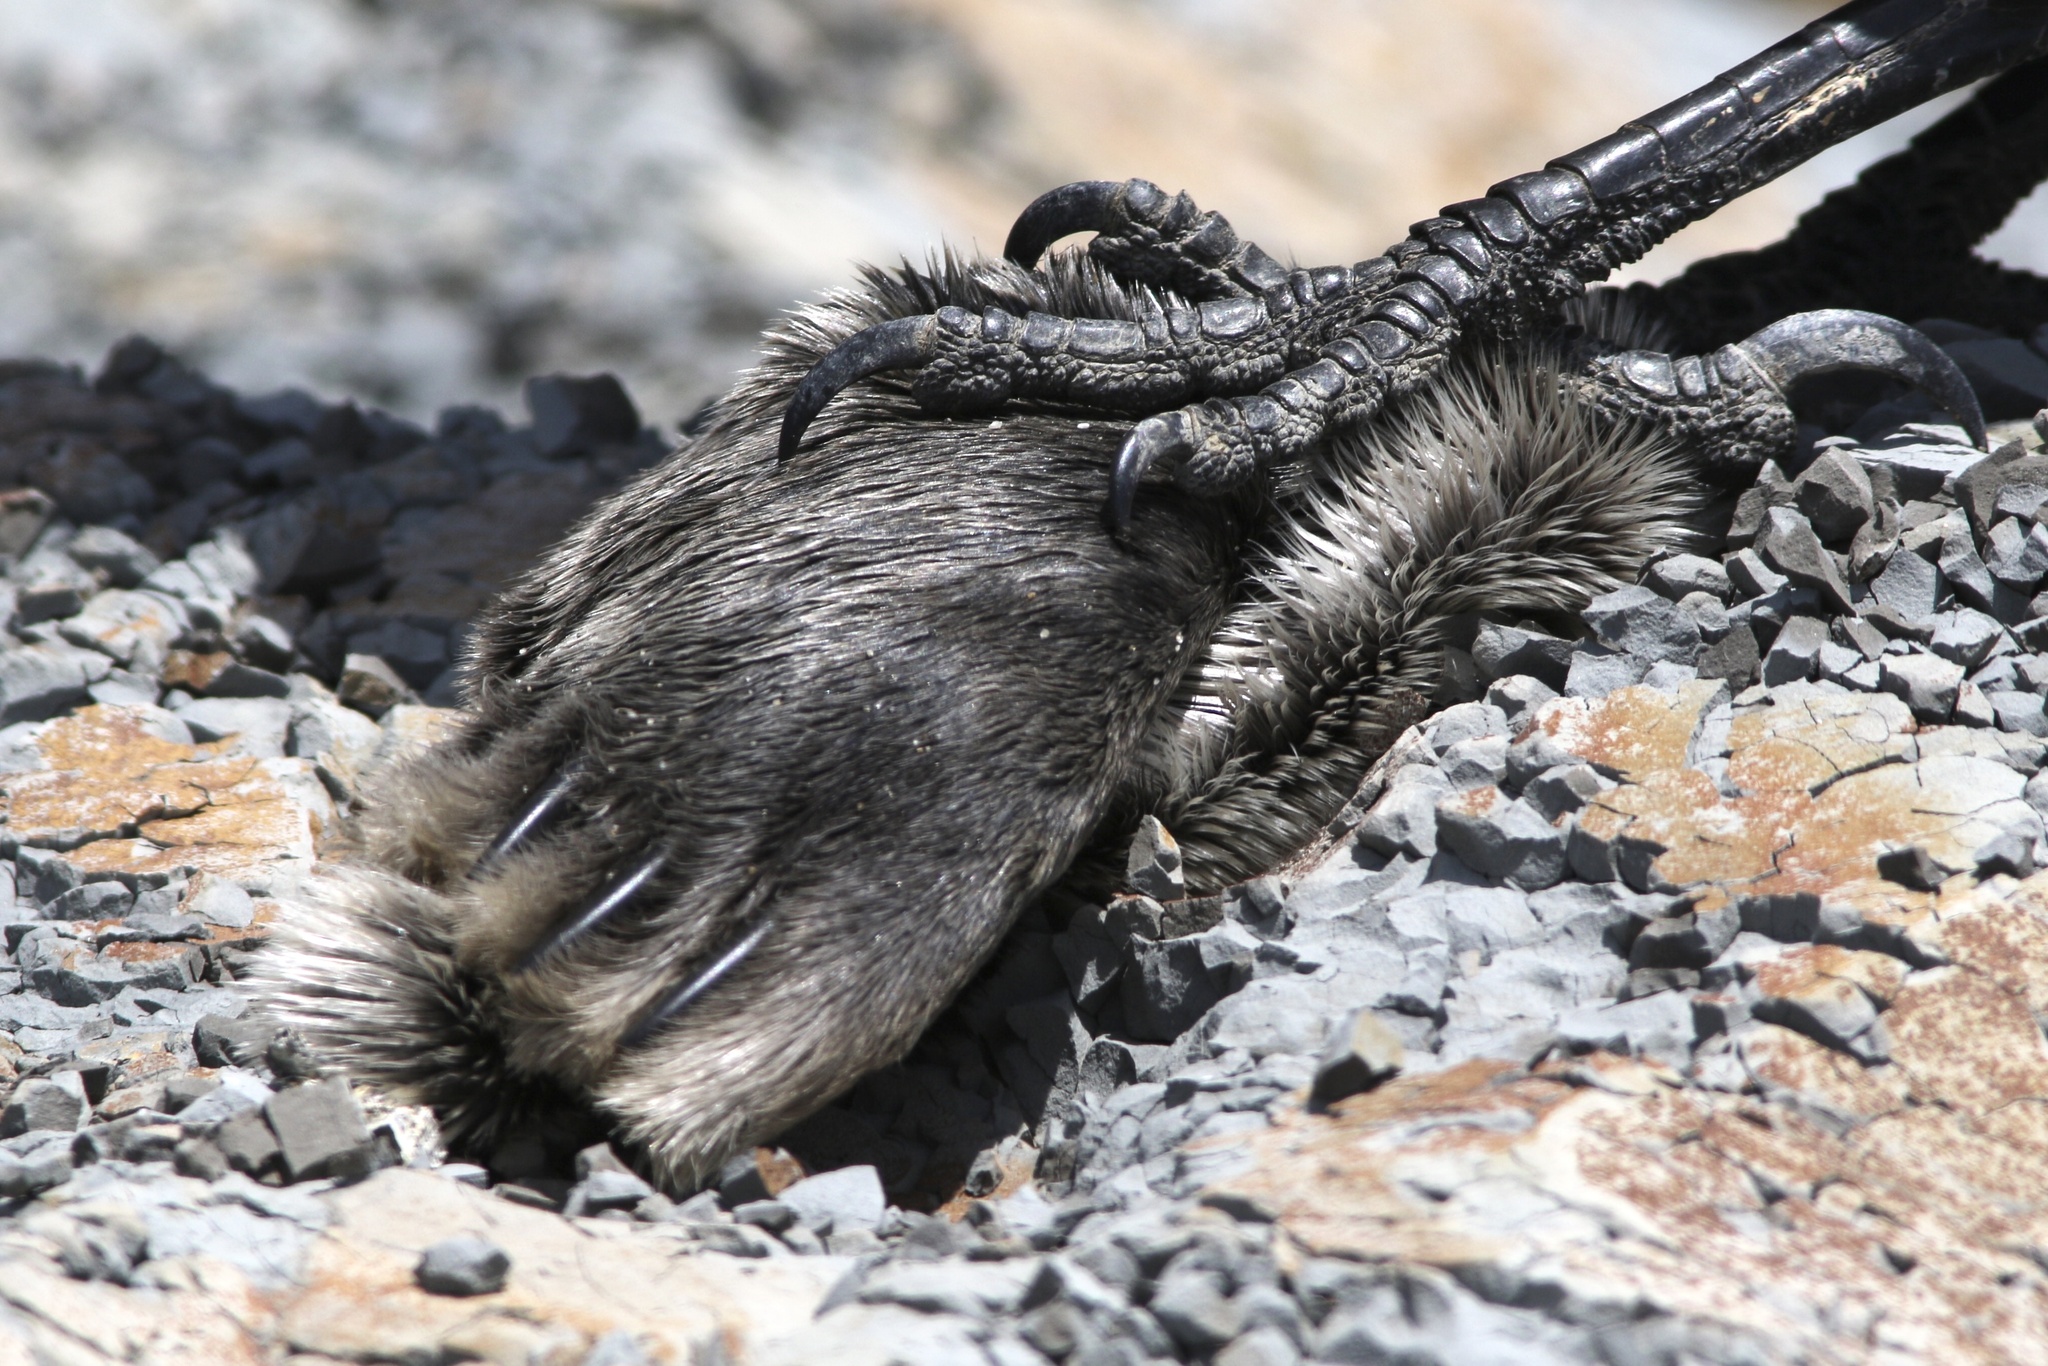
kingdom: Animalia
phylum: Chordata
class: Mammalia
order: Carnivora
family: Phocidae
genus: Phoca
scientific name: Phoca vitulina
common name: Harbor seal
